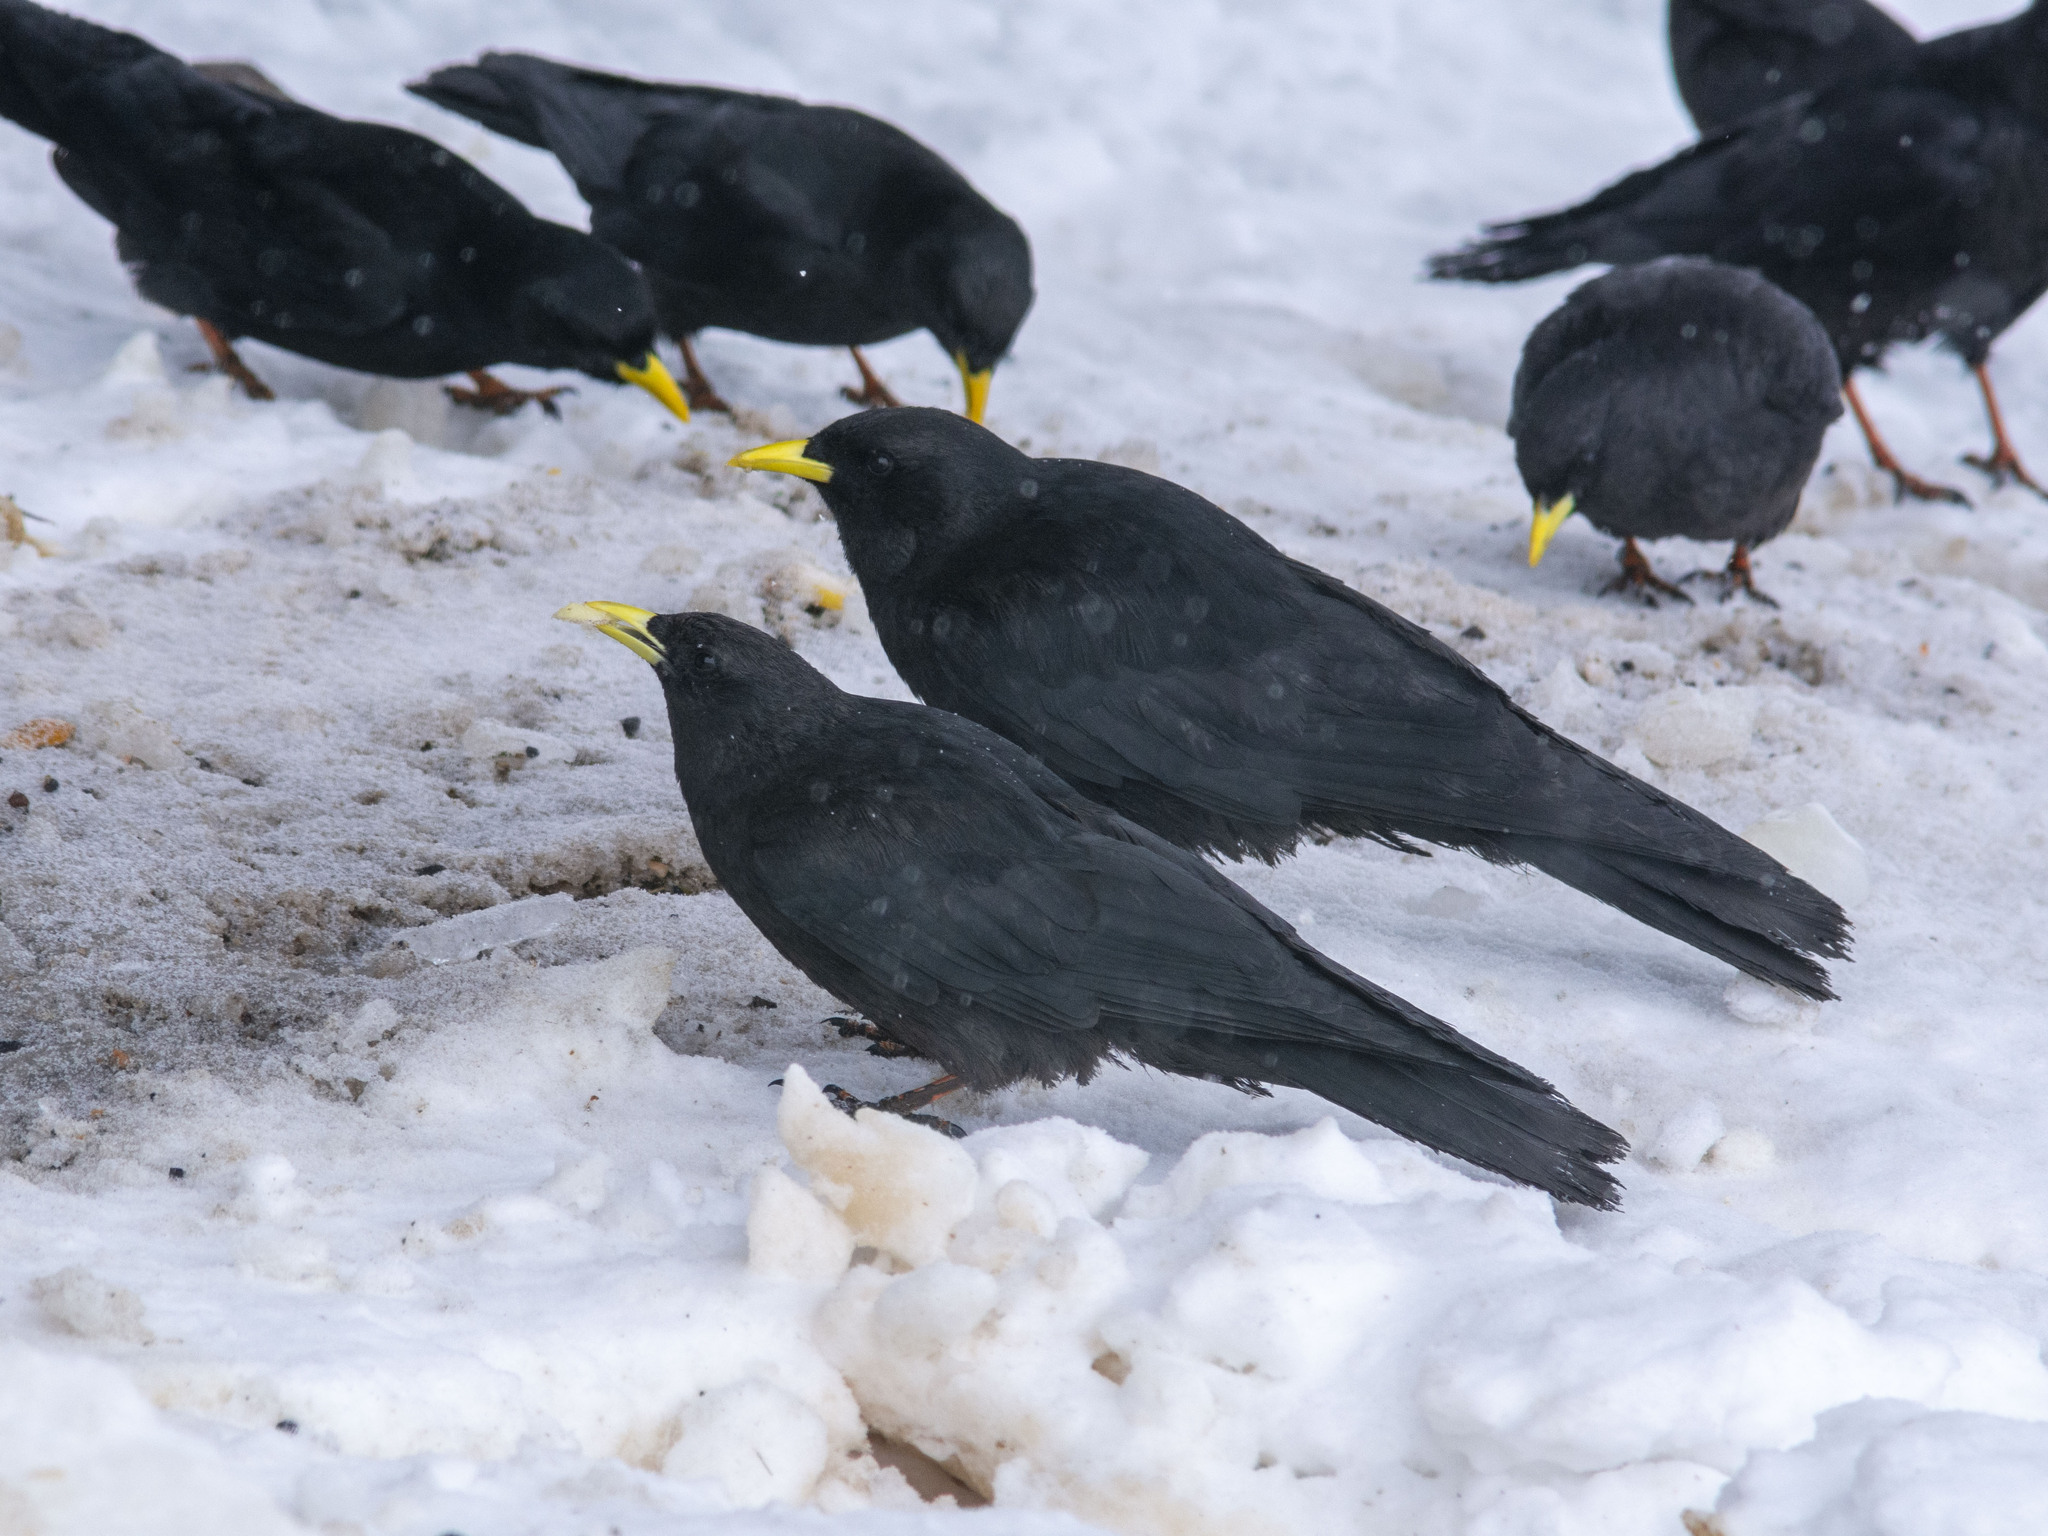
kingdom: Animalia
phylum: Chordata
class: Aves
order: Passeriformes
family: Corvidae
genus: Pyrrhocorax
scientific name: Pyrrhocorax graculus
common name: Alpine chough
